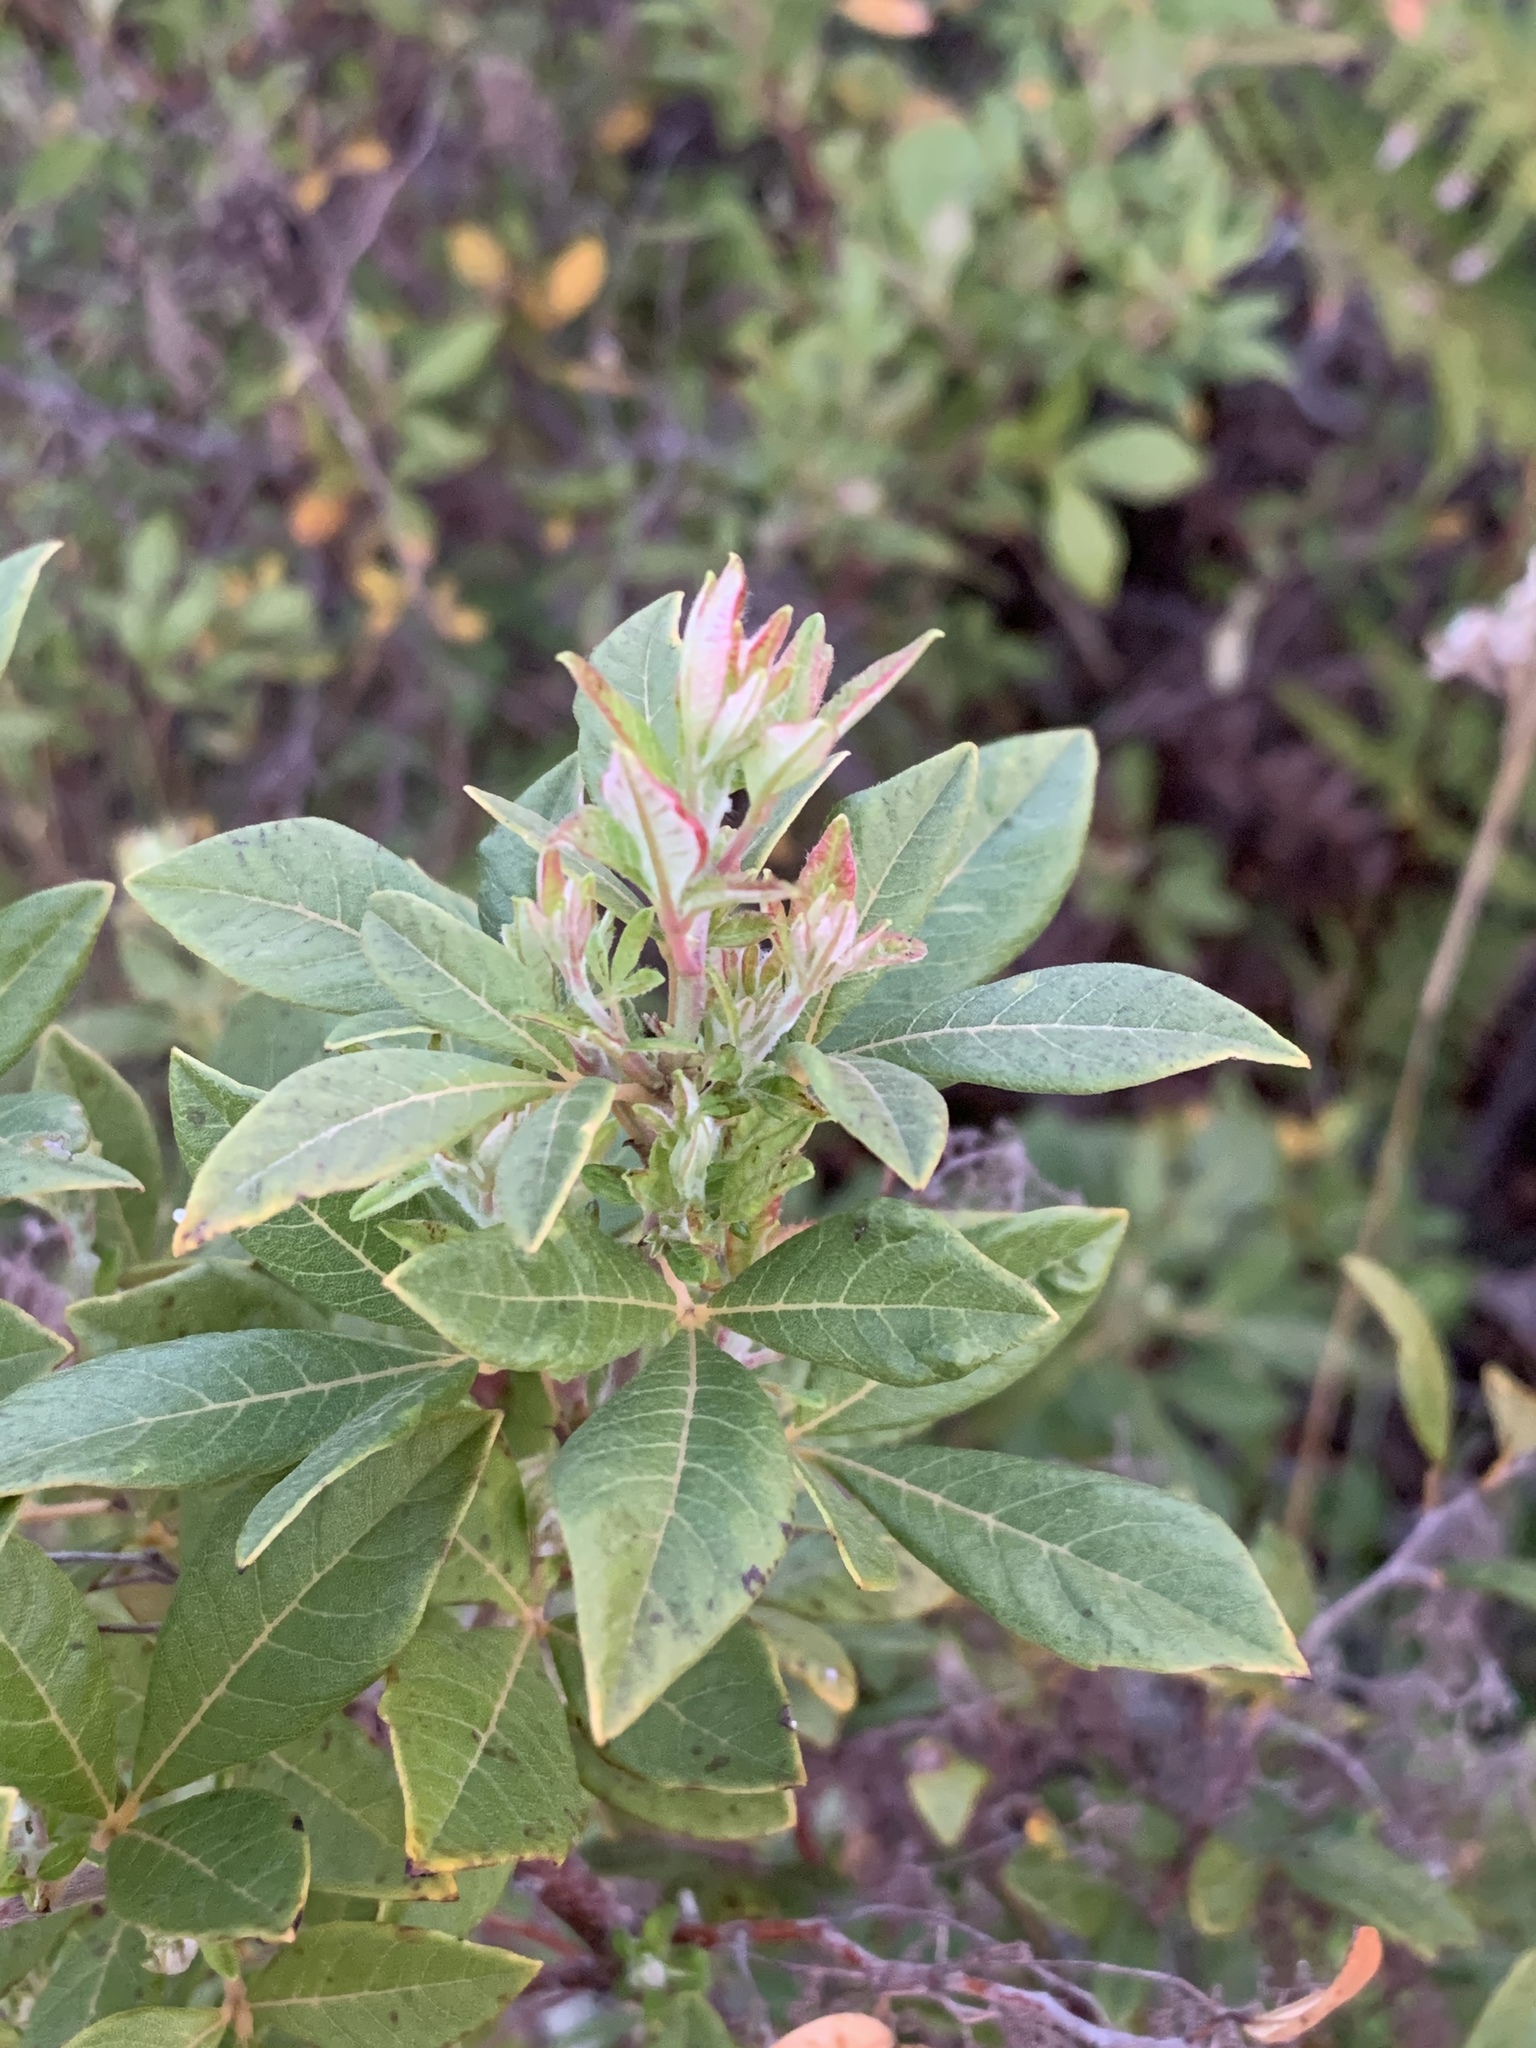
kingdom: Plantae
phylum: Tracheophyta
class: Magnoliopsida
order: Sapindales
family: Anacardiaceae
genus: Searsia
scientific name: Searsia tomentosa
